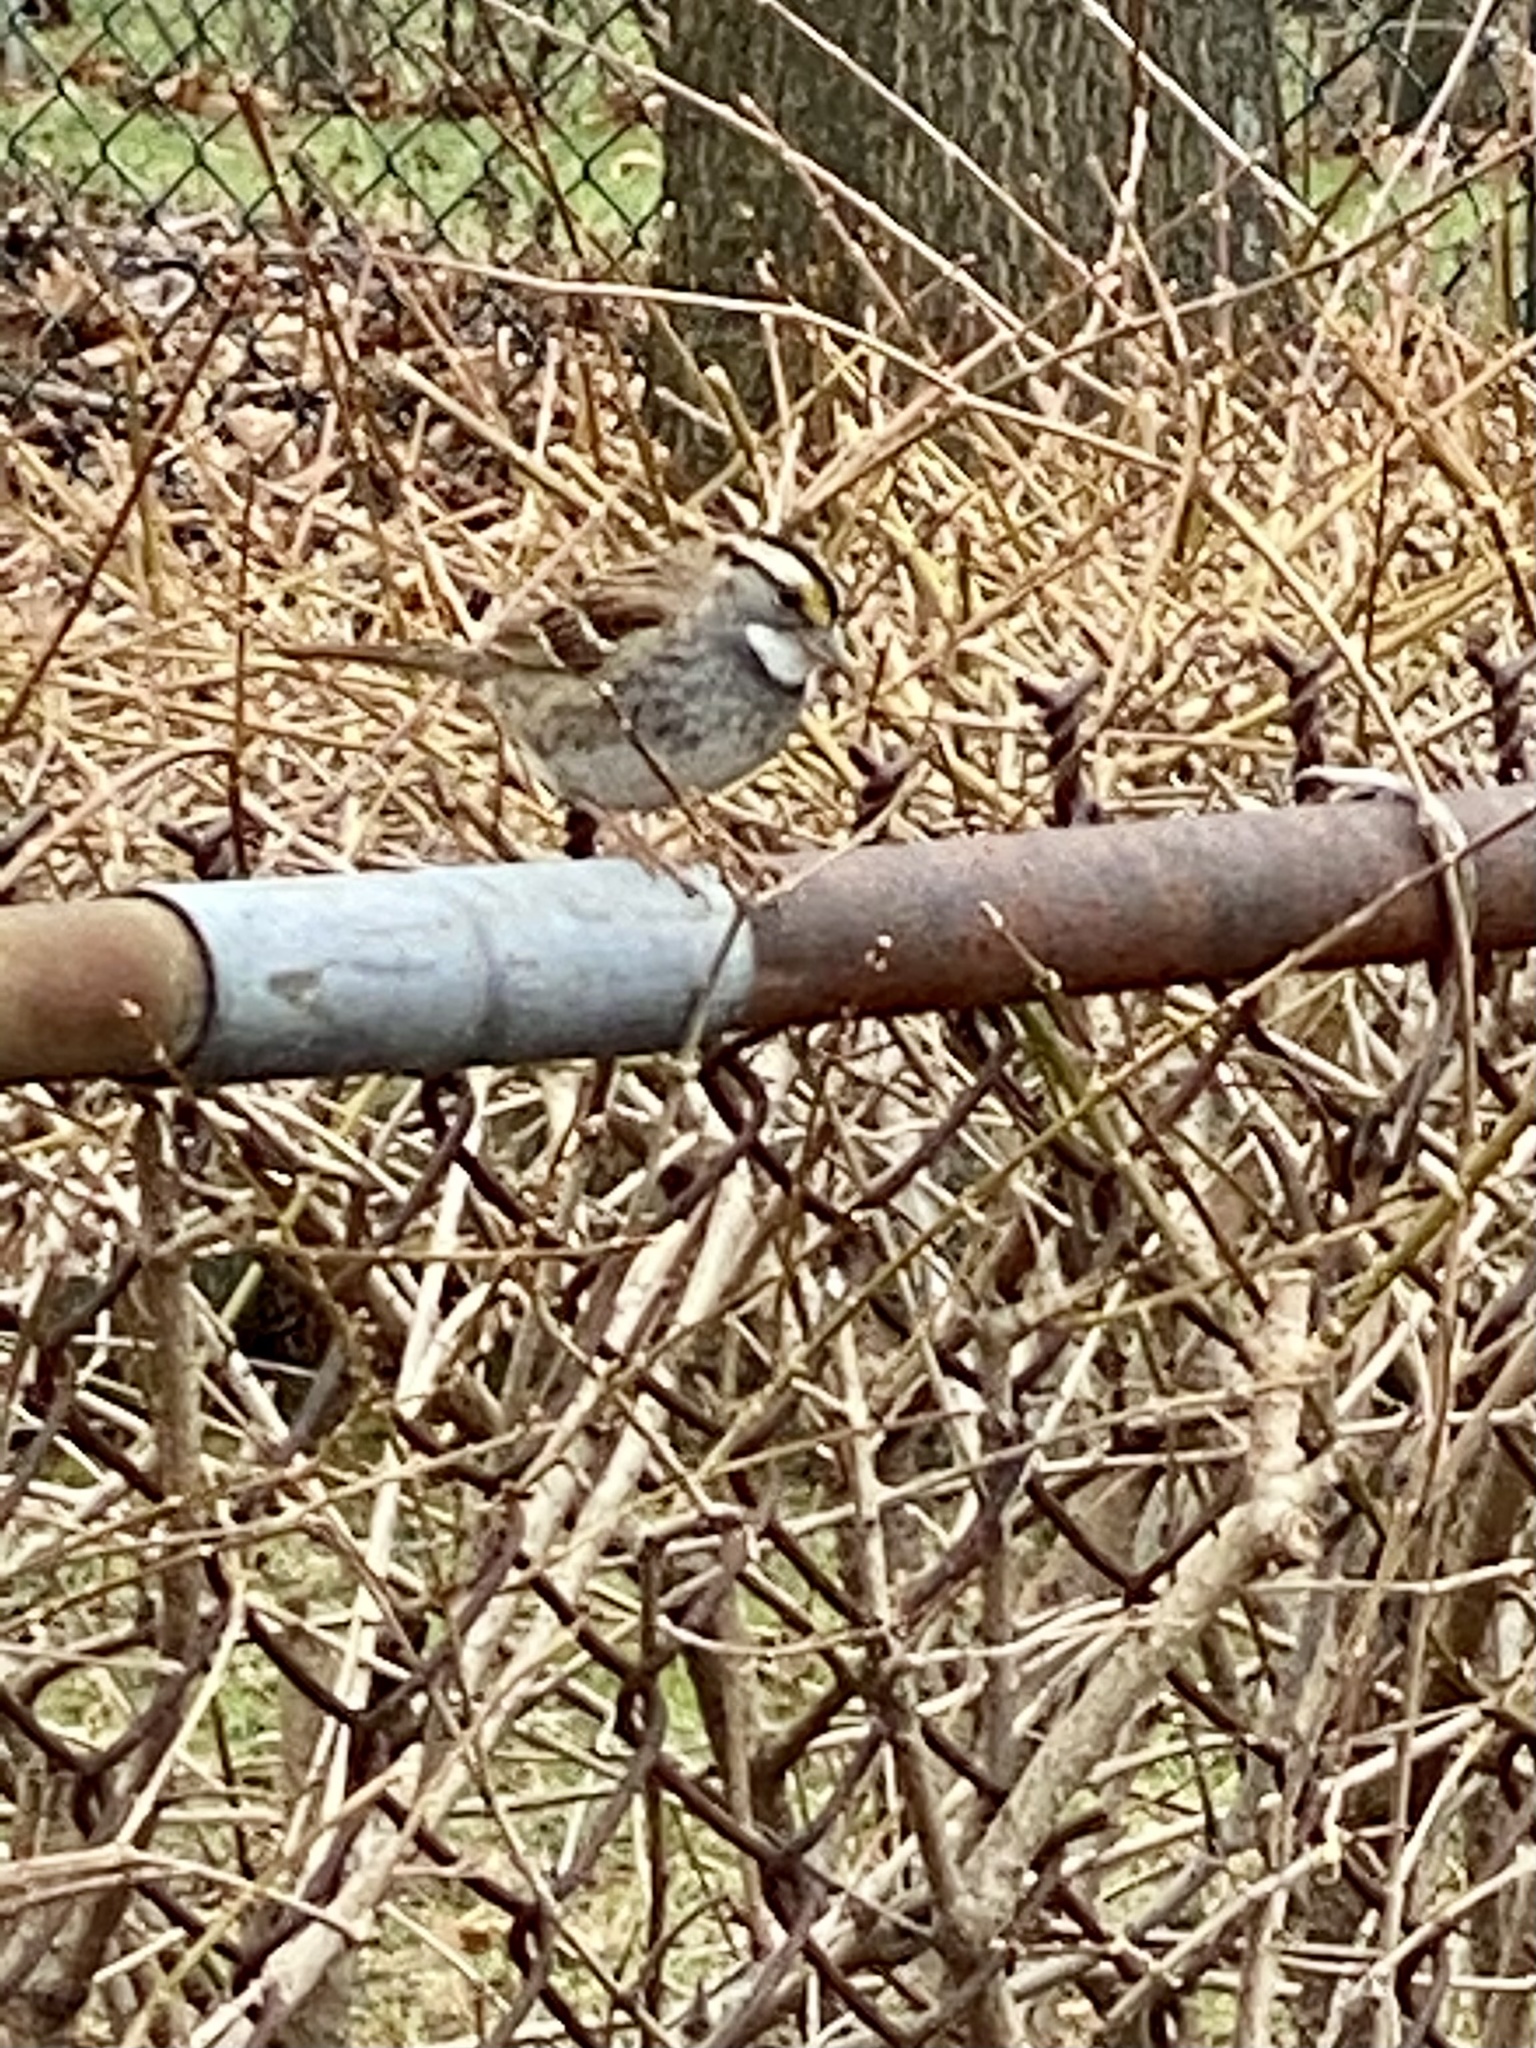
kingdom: Animalia
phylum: Chordata
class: Aves
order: Passeriformes
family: Passerellidae
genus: Zonotrichia
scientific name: Zonotrichia albicollis
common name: White-throated sparrow
